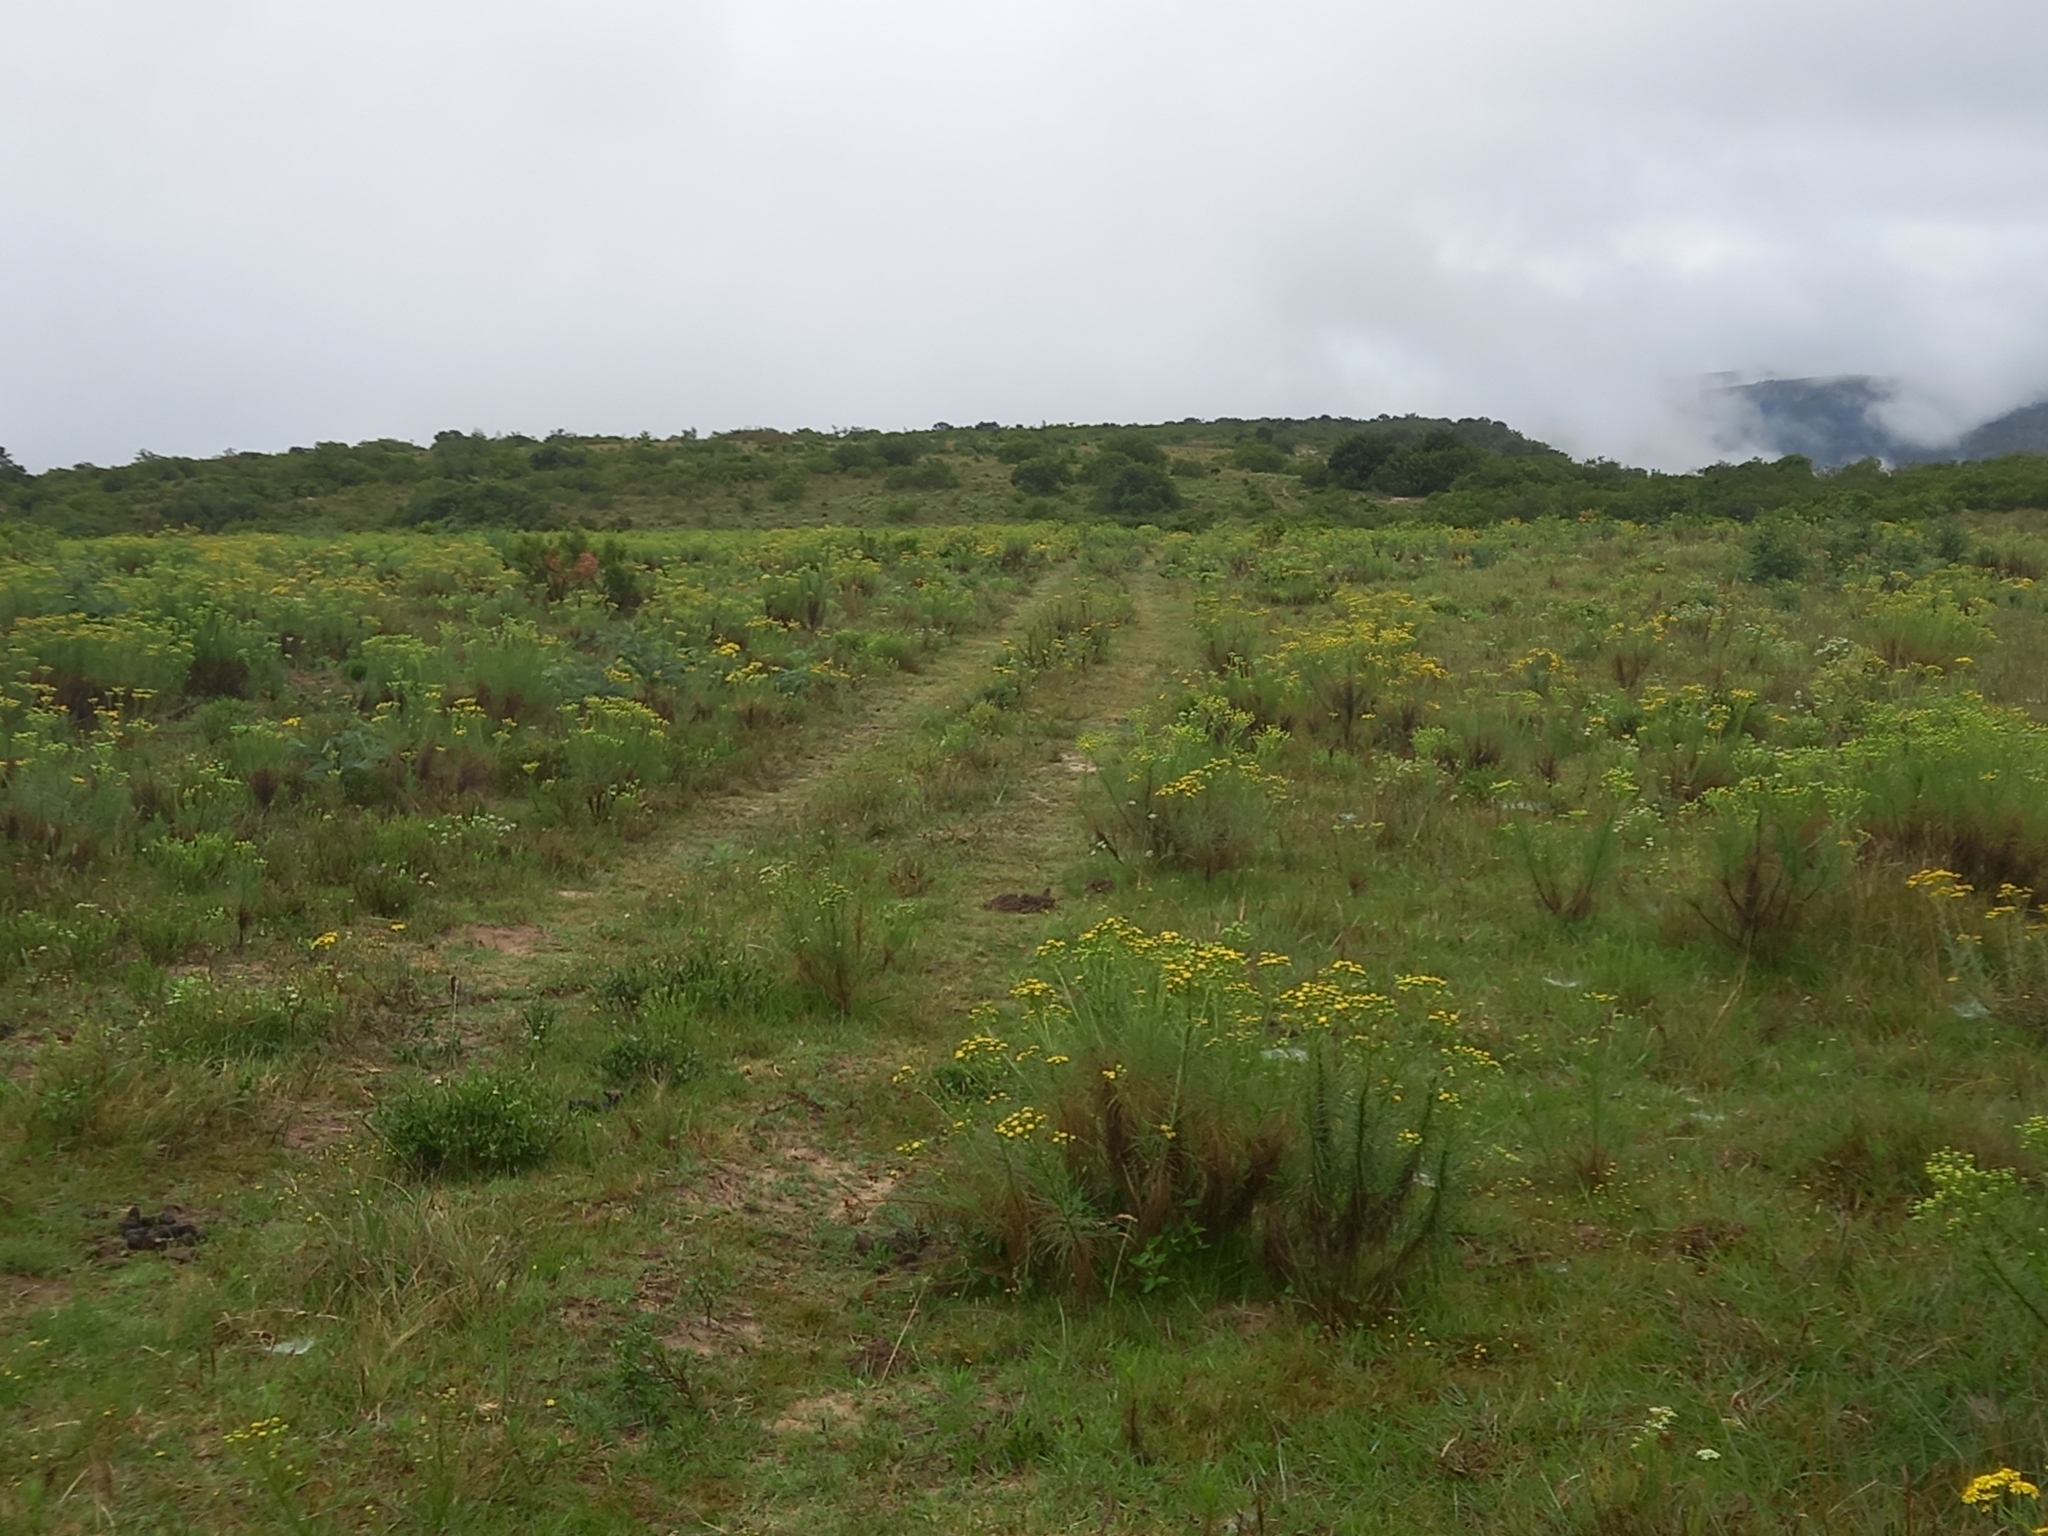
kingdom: Plantae
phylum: Tracheophyta
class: Magnoliopsida
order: Asterales
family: Asteraceae
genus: Senecio
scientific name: Senecio chrysocoma
